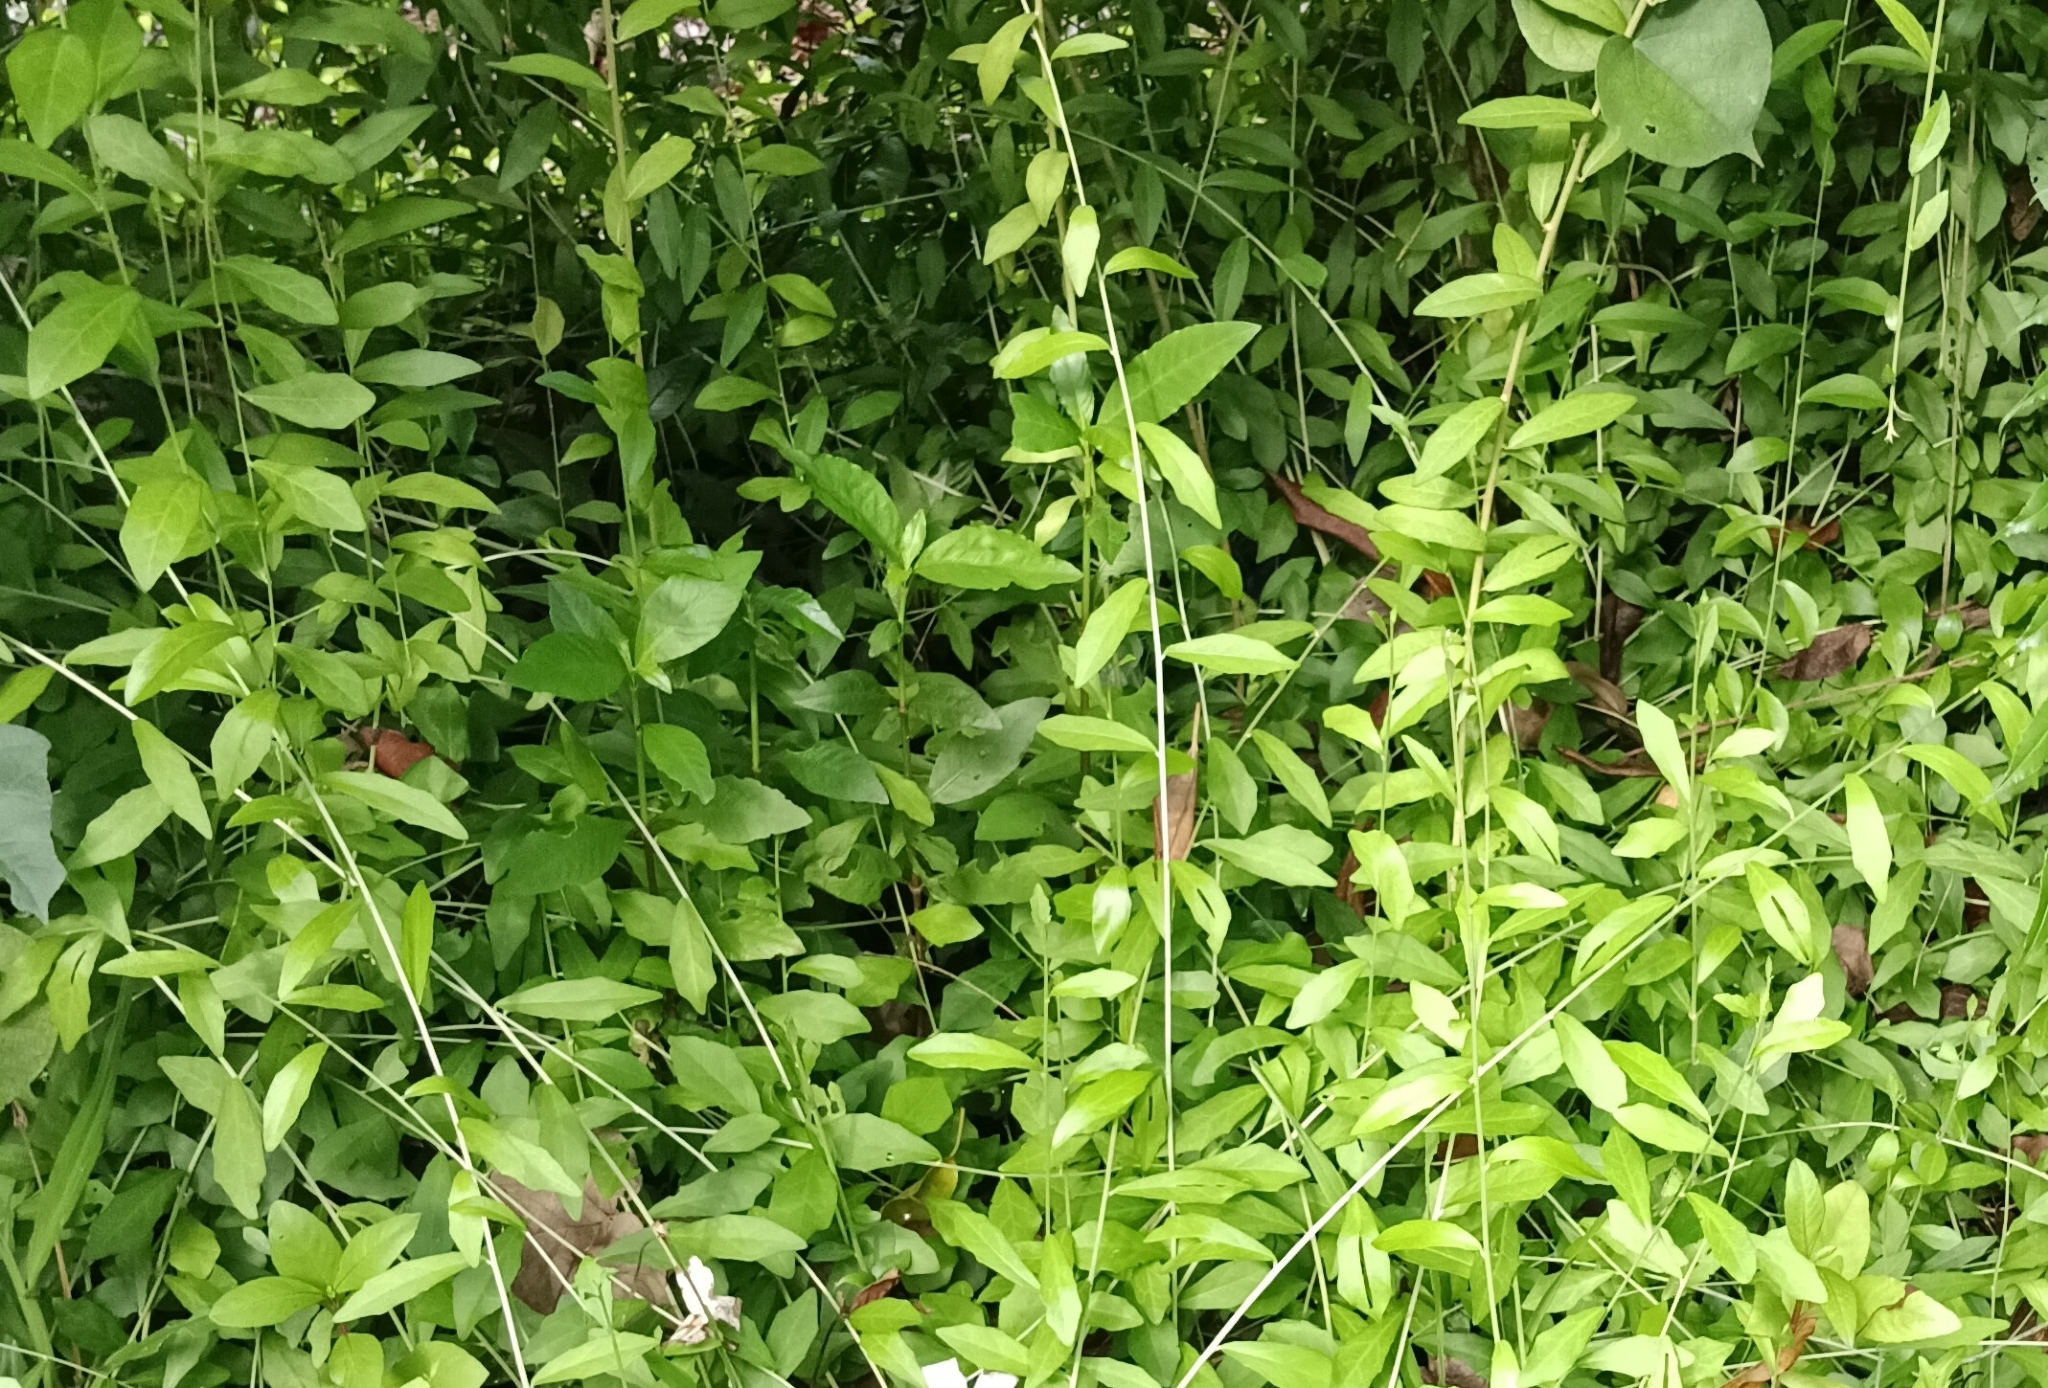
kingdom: Plantae
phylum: Tracheophyta
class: Magnoliopsida
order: Asterales
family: Asteraceae
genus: Tarlmounia
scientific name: Tarlmounia elliptica
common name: Kheua sa lot
